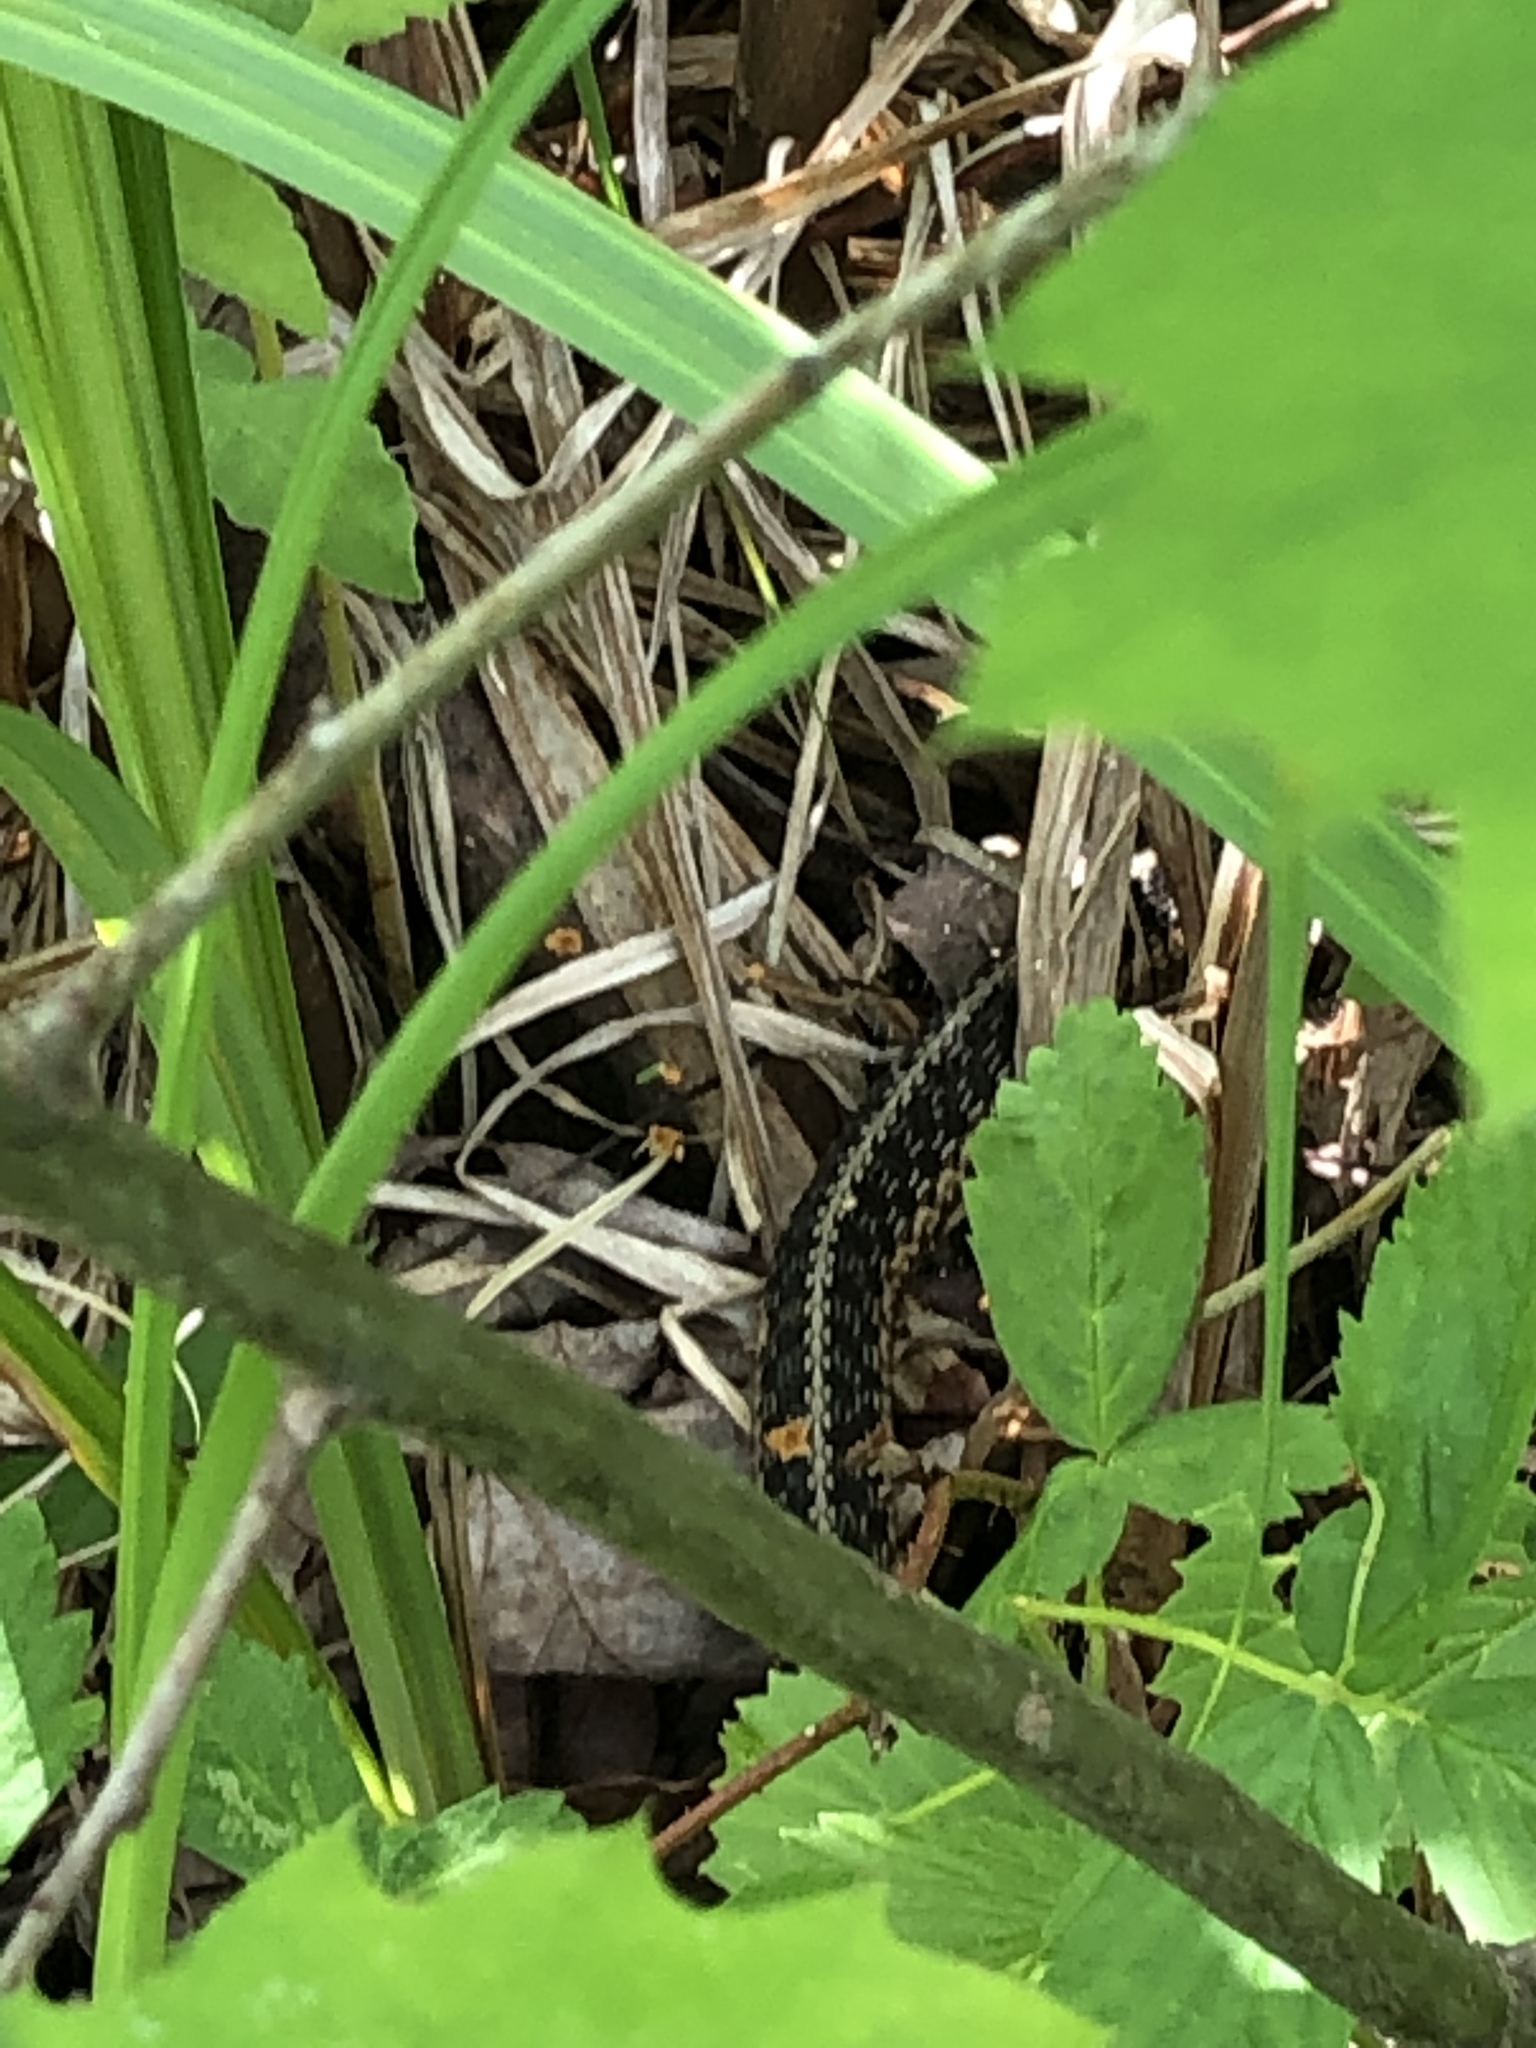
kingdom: Animalia
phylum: Chordata
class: Squamata
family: Colubridae
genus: Thamnophis
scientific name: Thamnophis sirtalis
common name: Common garter snake
